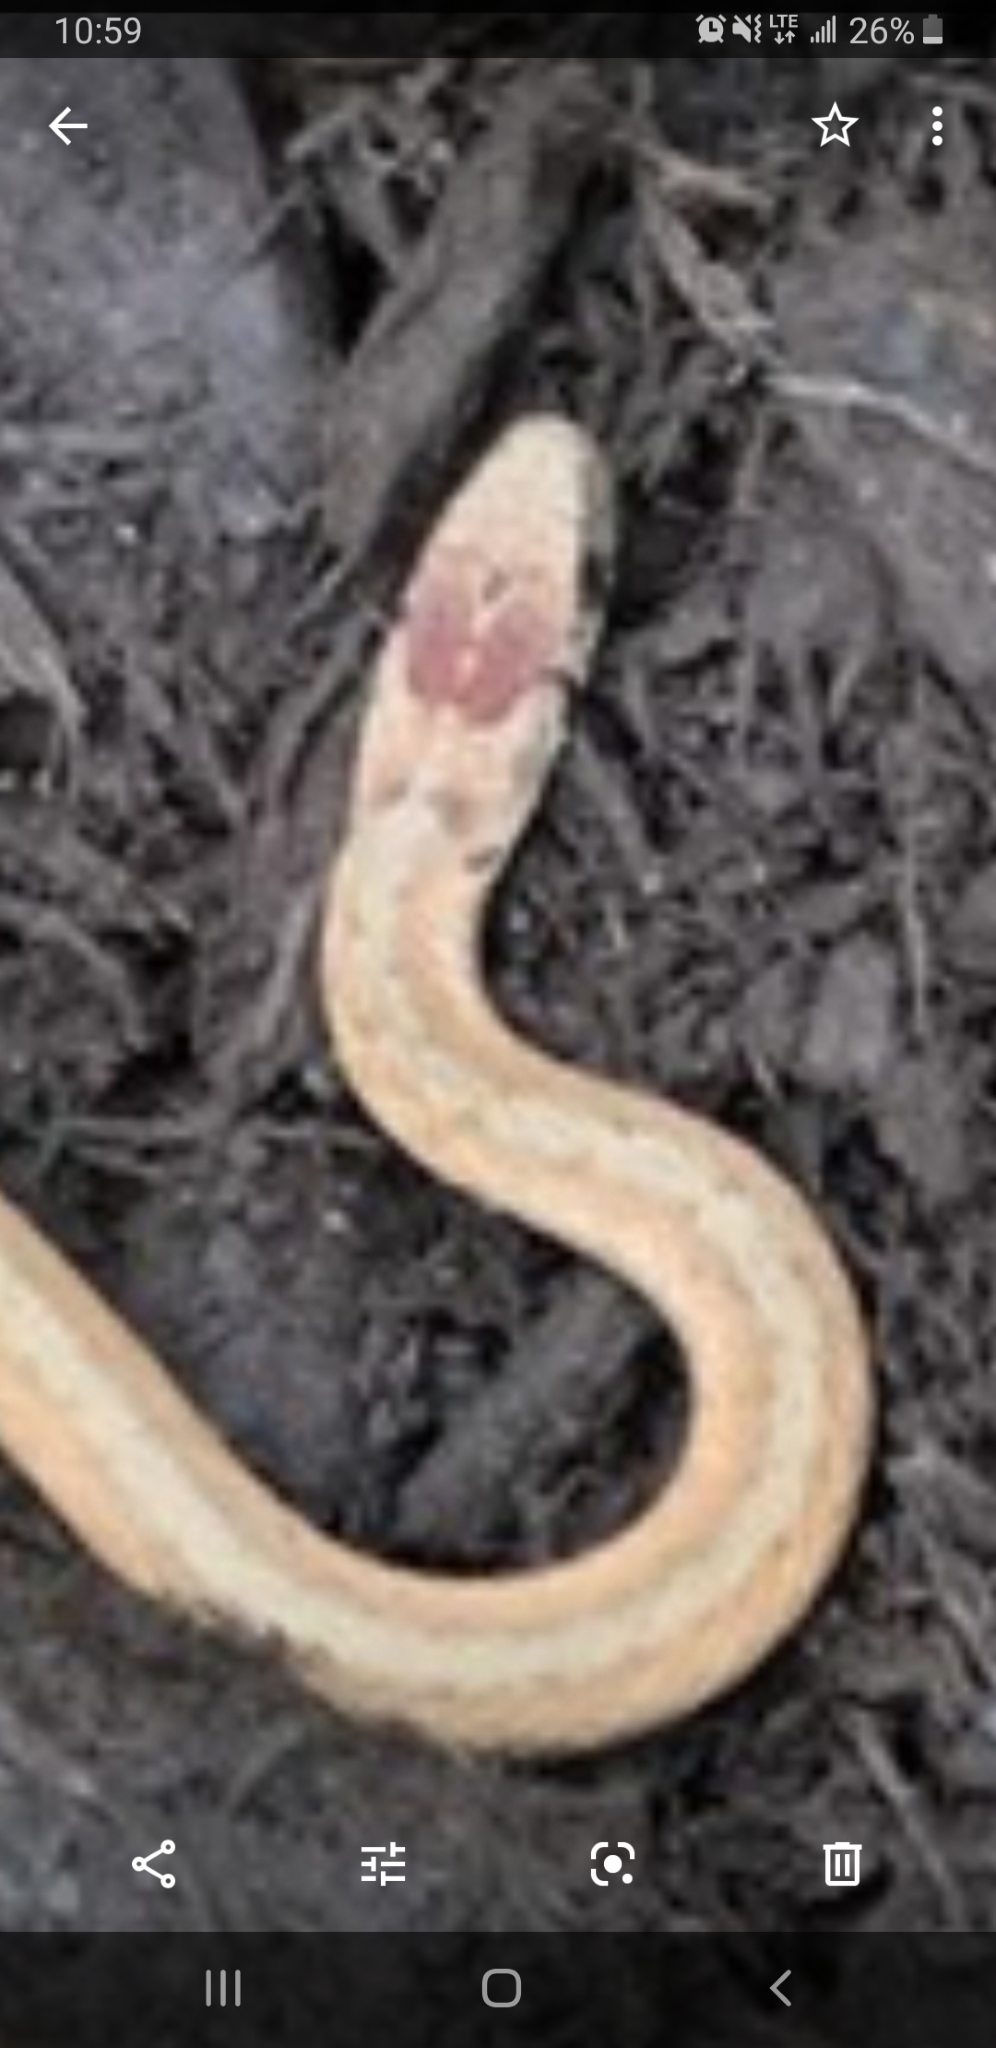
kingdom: Animalia
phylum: Chordata
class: Squamata
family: Colubridae
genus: Storeria
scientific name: Storeria dekayi
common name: (dekay’s) brown snake
